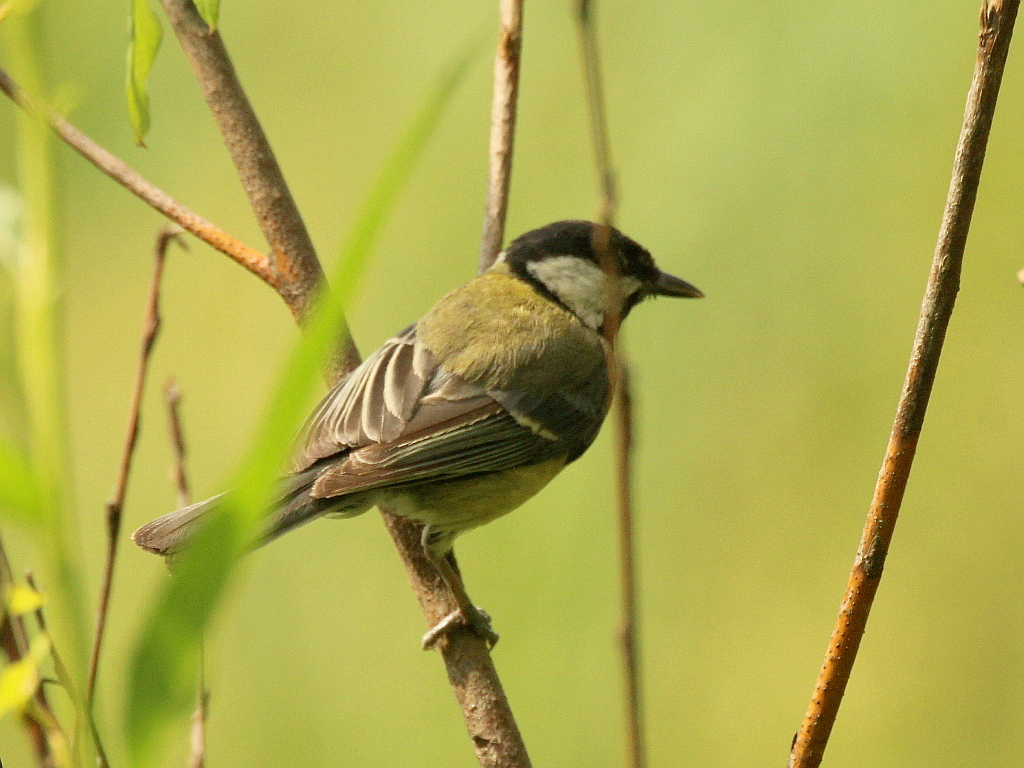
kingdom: Animalia
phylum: Chordata
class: Aves
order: Passeriformes
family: Paridae
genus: Parus
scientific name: Parus major
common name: Great tit
